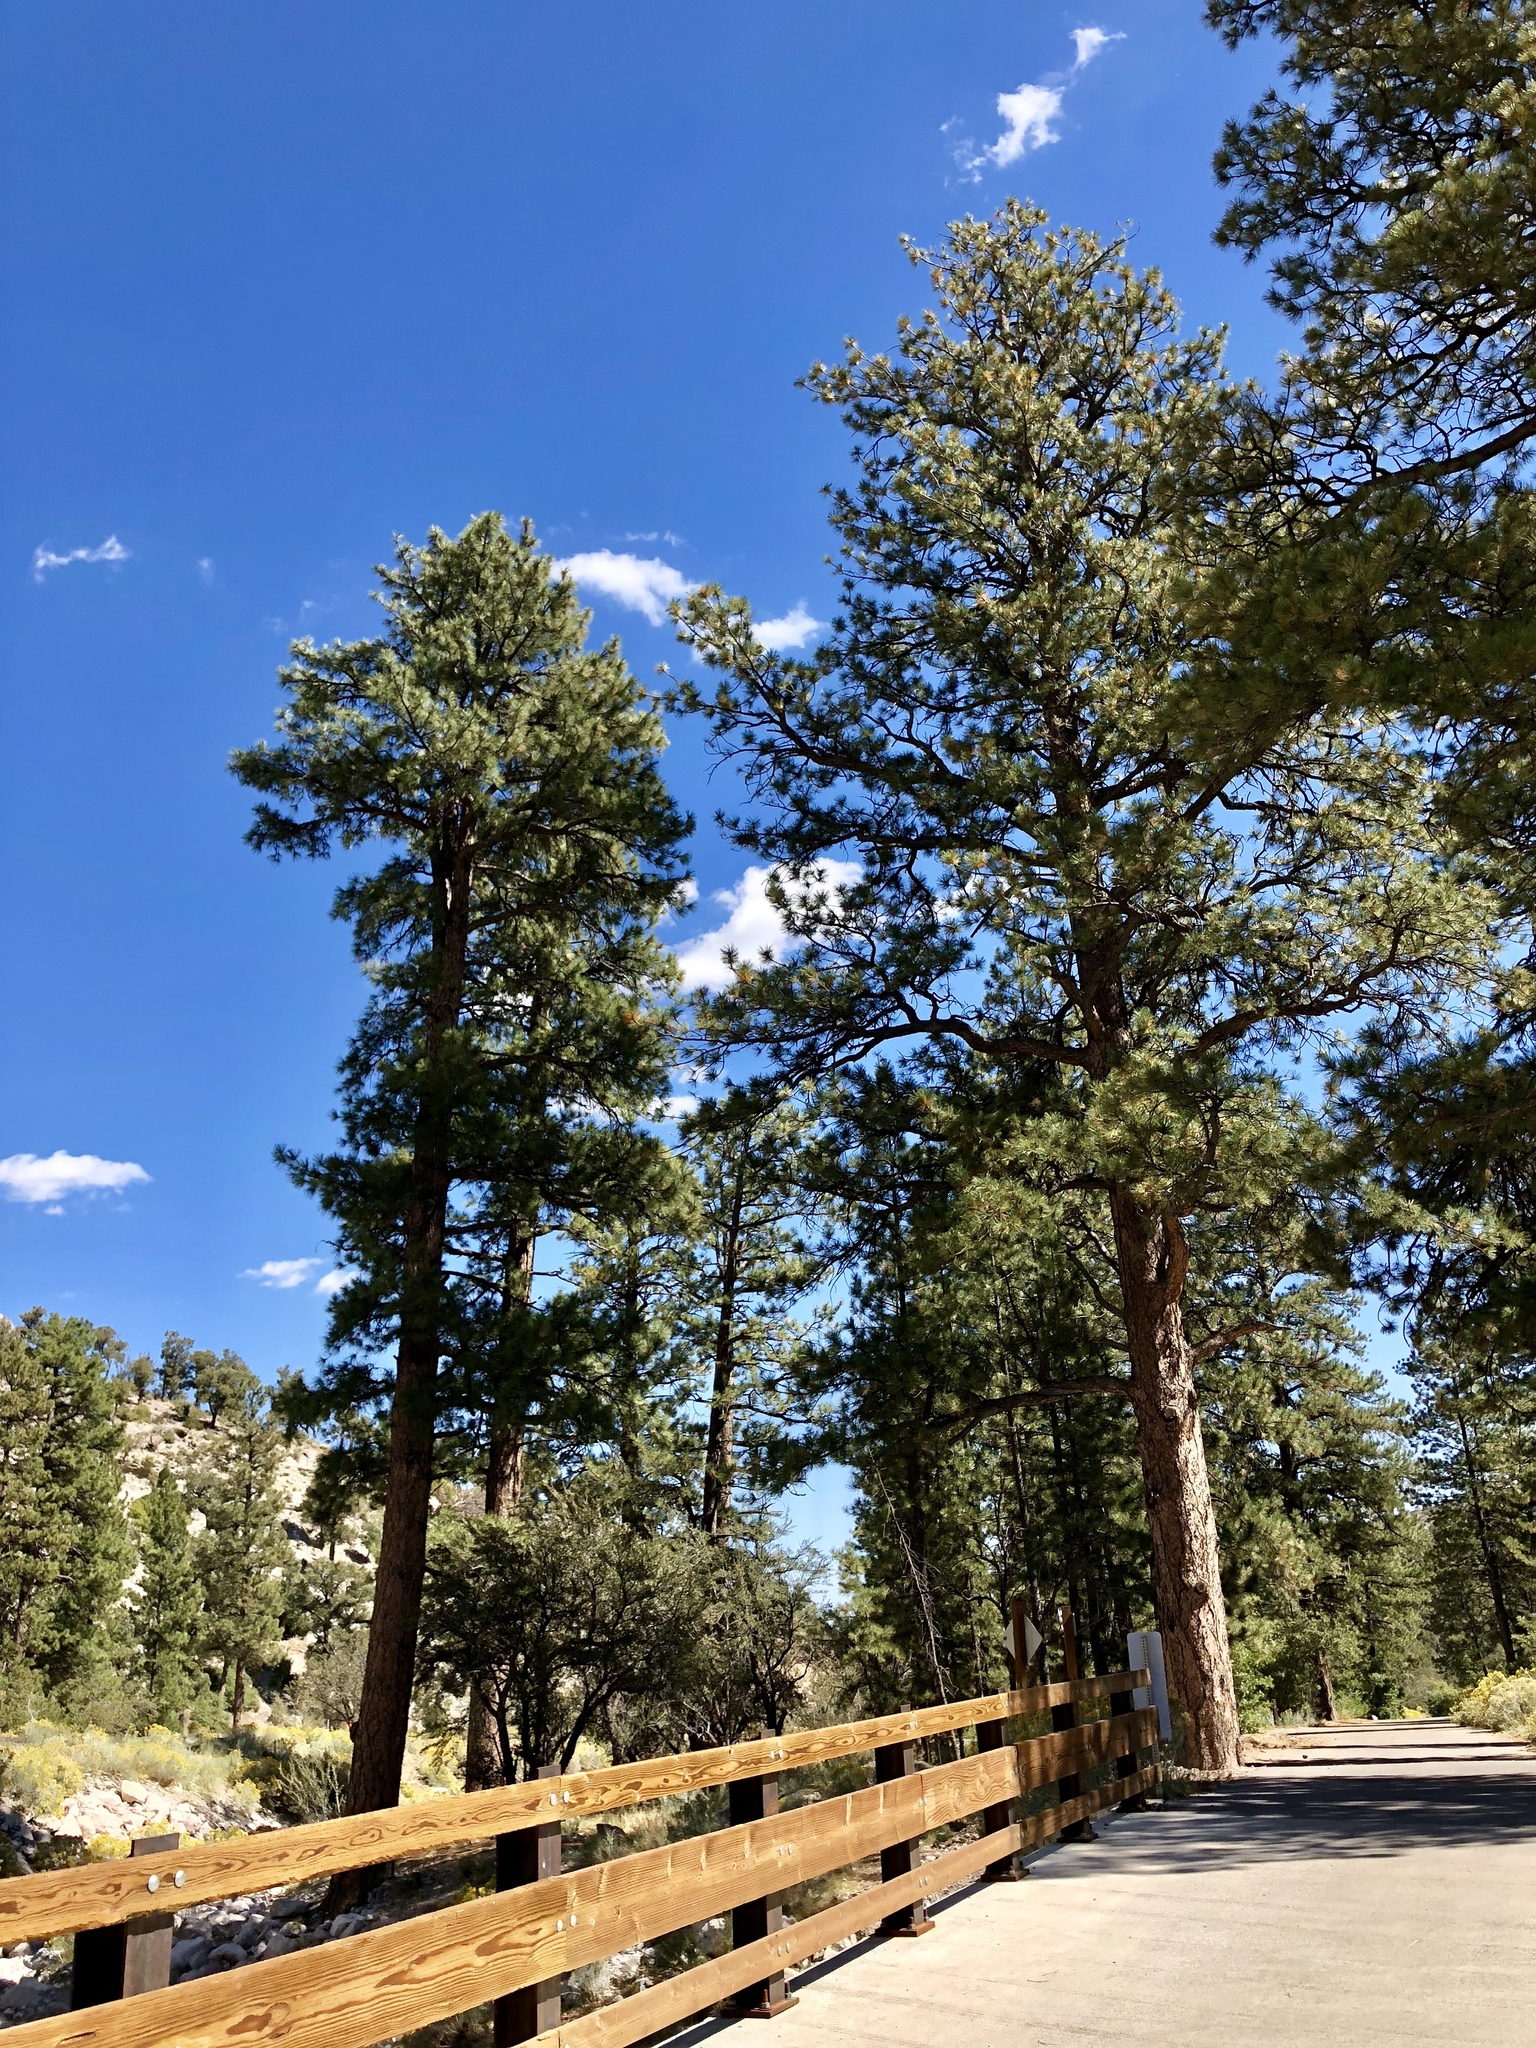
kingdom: Plantae
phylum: Tracheophyta
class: Pinopsida
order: Pinales
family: Pinaceae
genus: Pinus
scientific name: Pinus ponderosa
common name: Western yellow-pine
